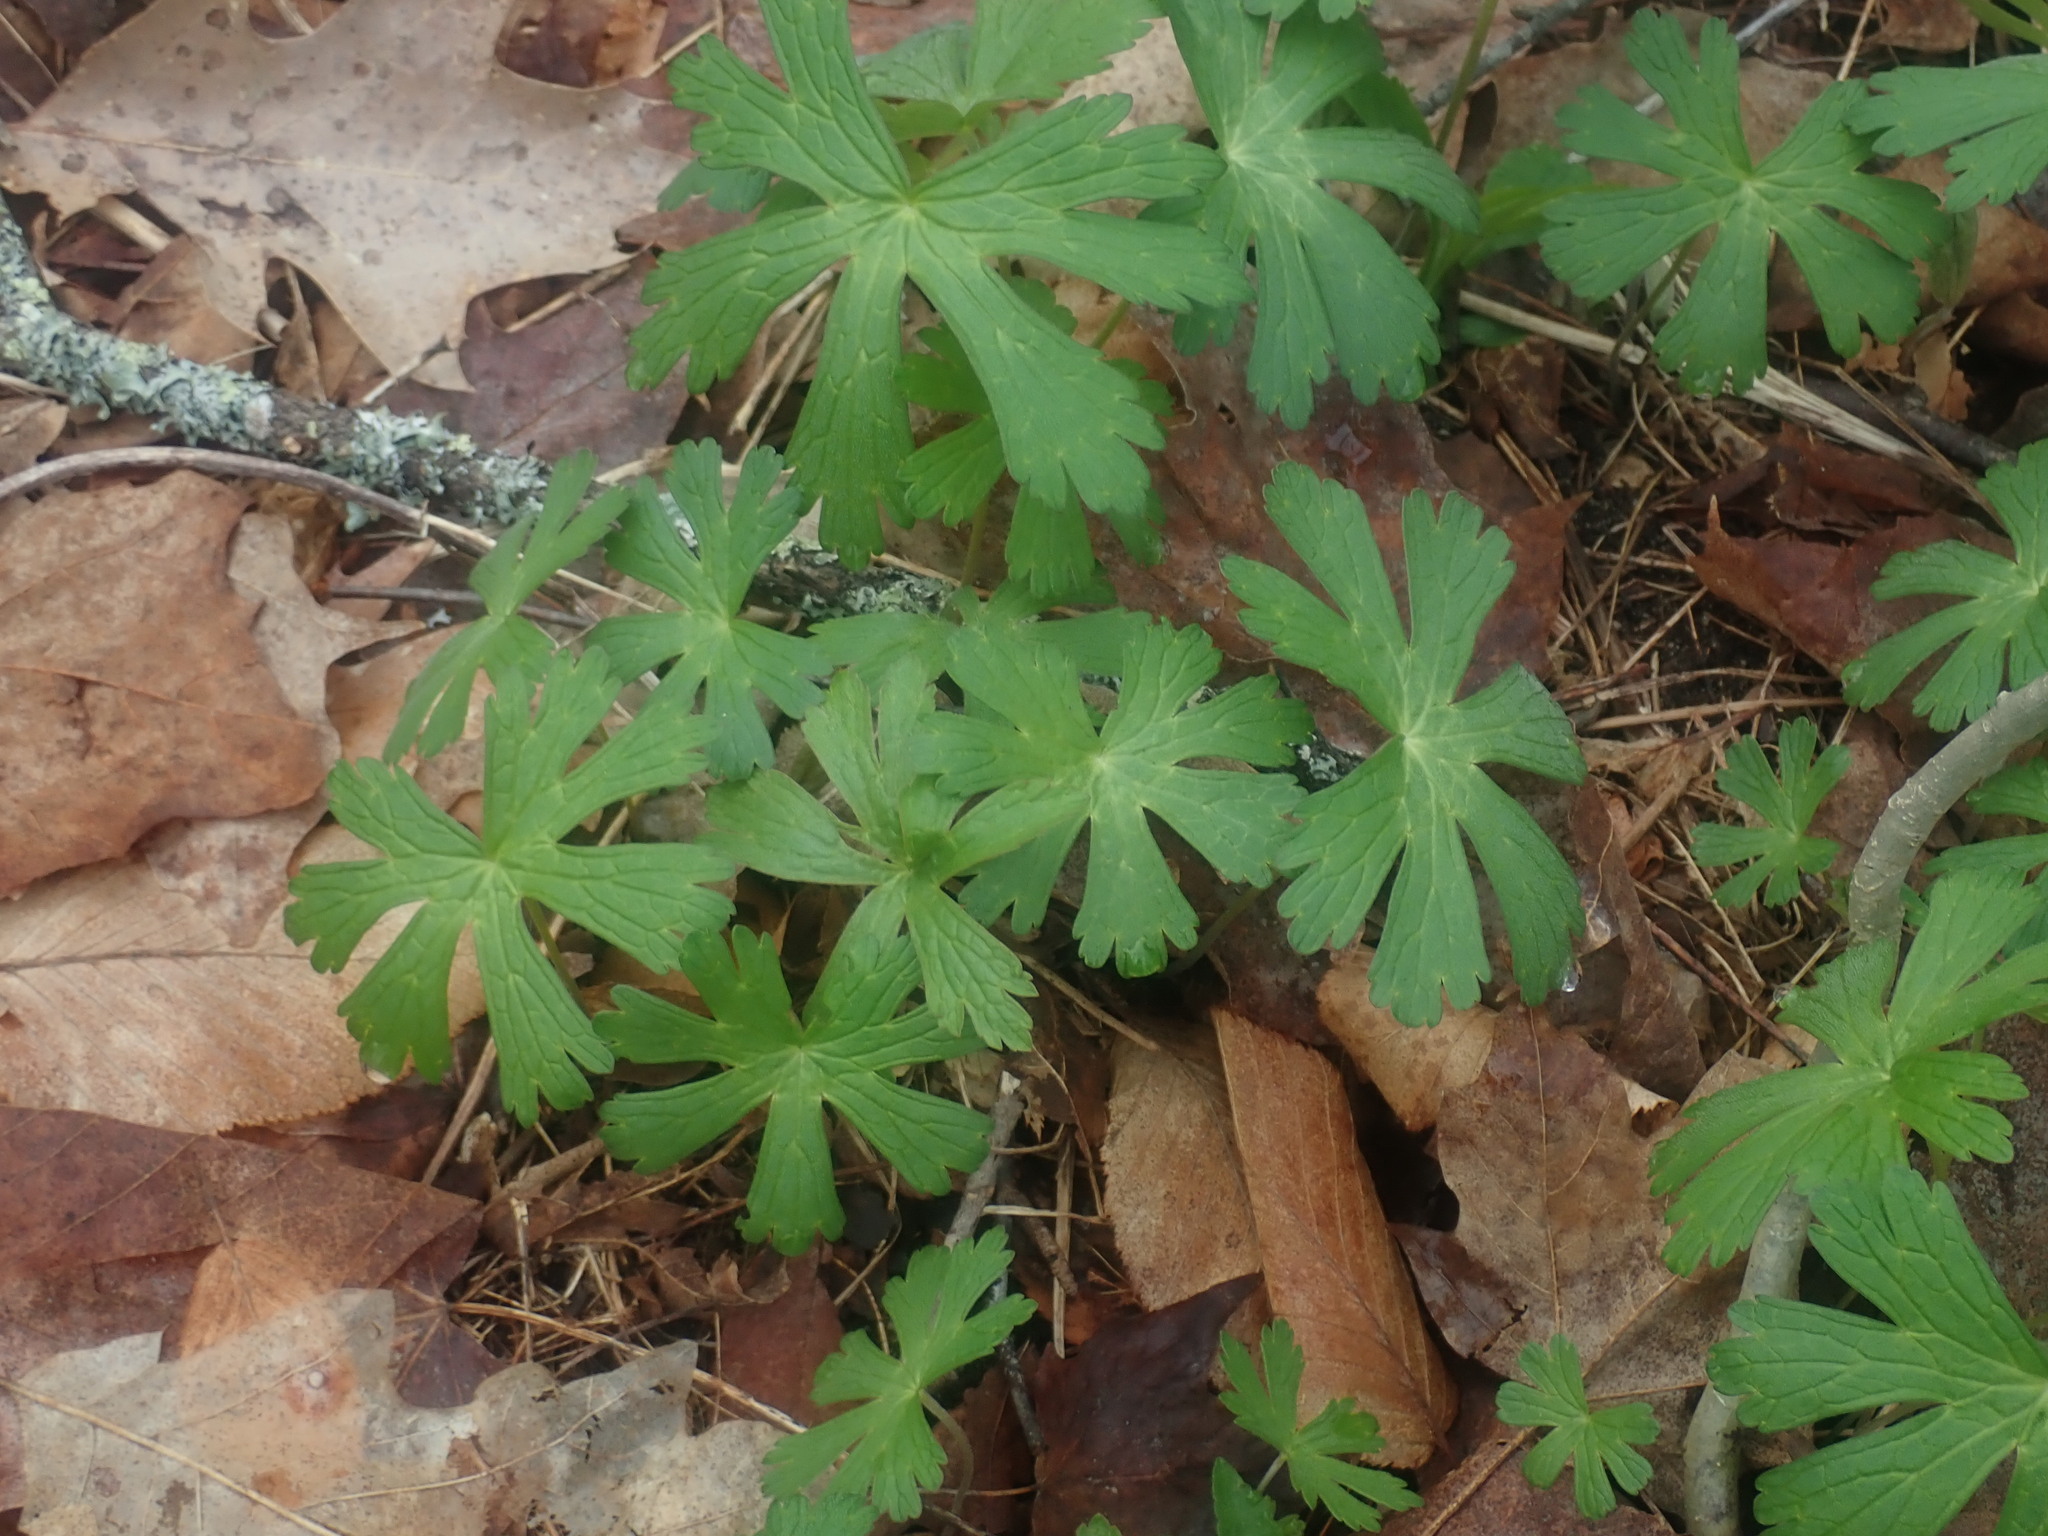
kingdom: Plantae
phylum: Tracheophyta
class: Magnoliopsida
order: Geraniales
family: Geraniaceae
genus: Geranium
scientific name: Geranium maculatum
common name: Spotted geranium
